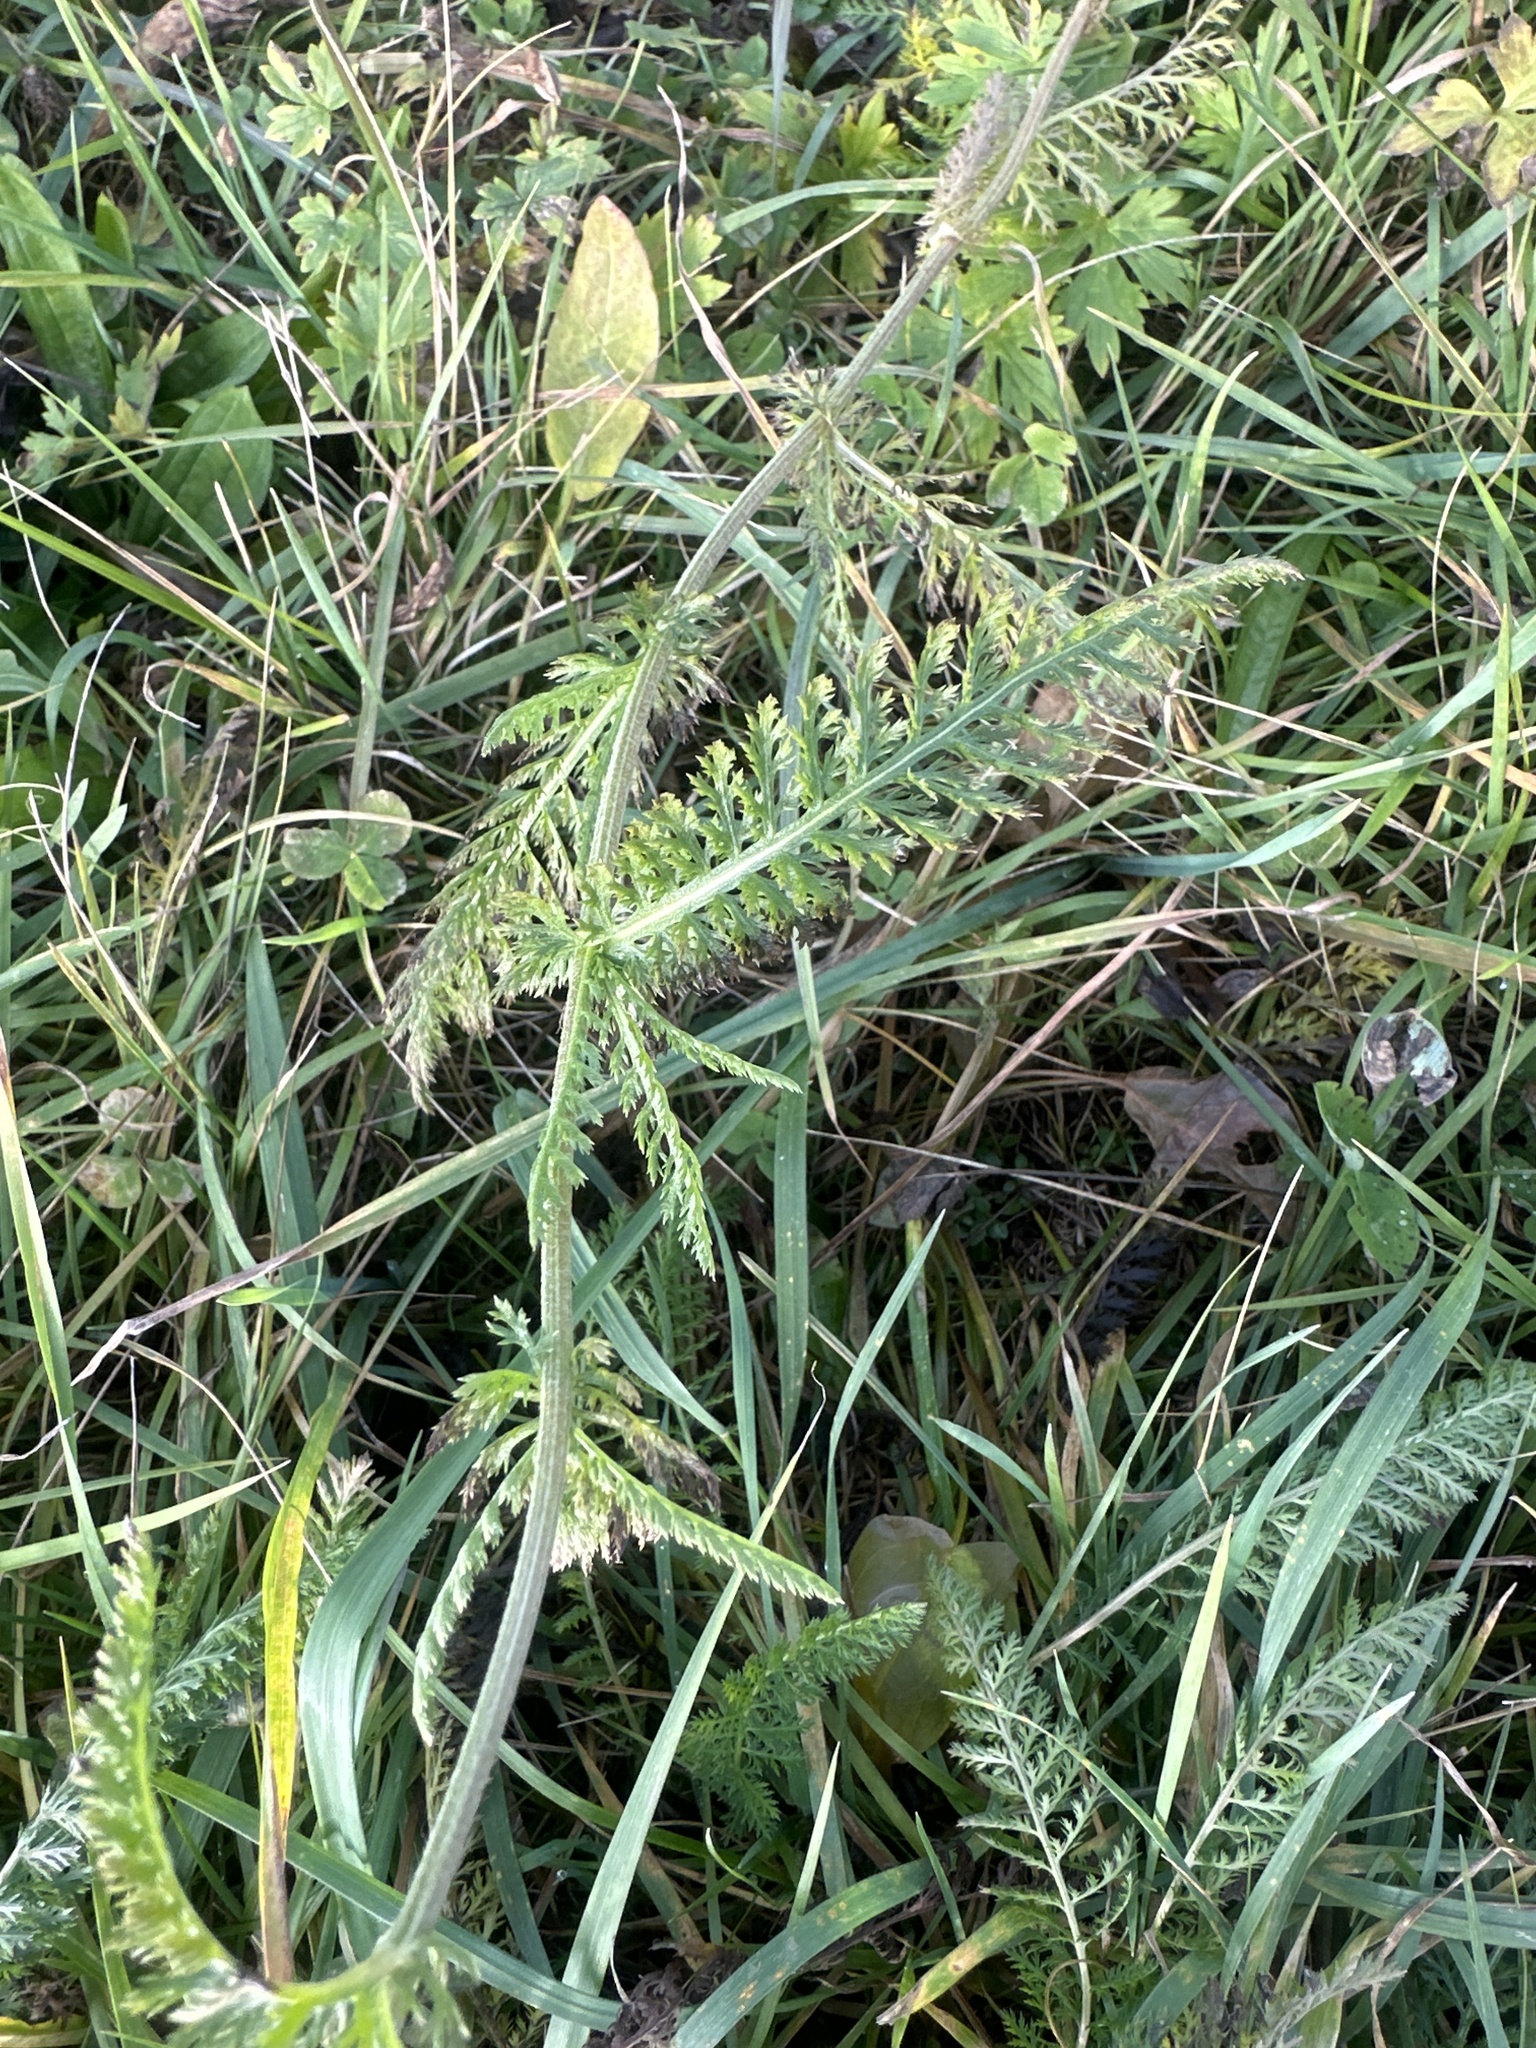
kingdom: Plantae
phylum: Tracheophyta
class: Magnoliopsida
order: Asterales
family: Asteraceae
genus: Achillea
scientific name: Achillea millefolium
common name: Yarrow
